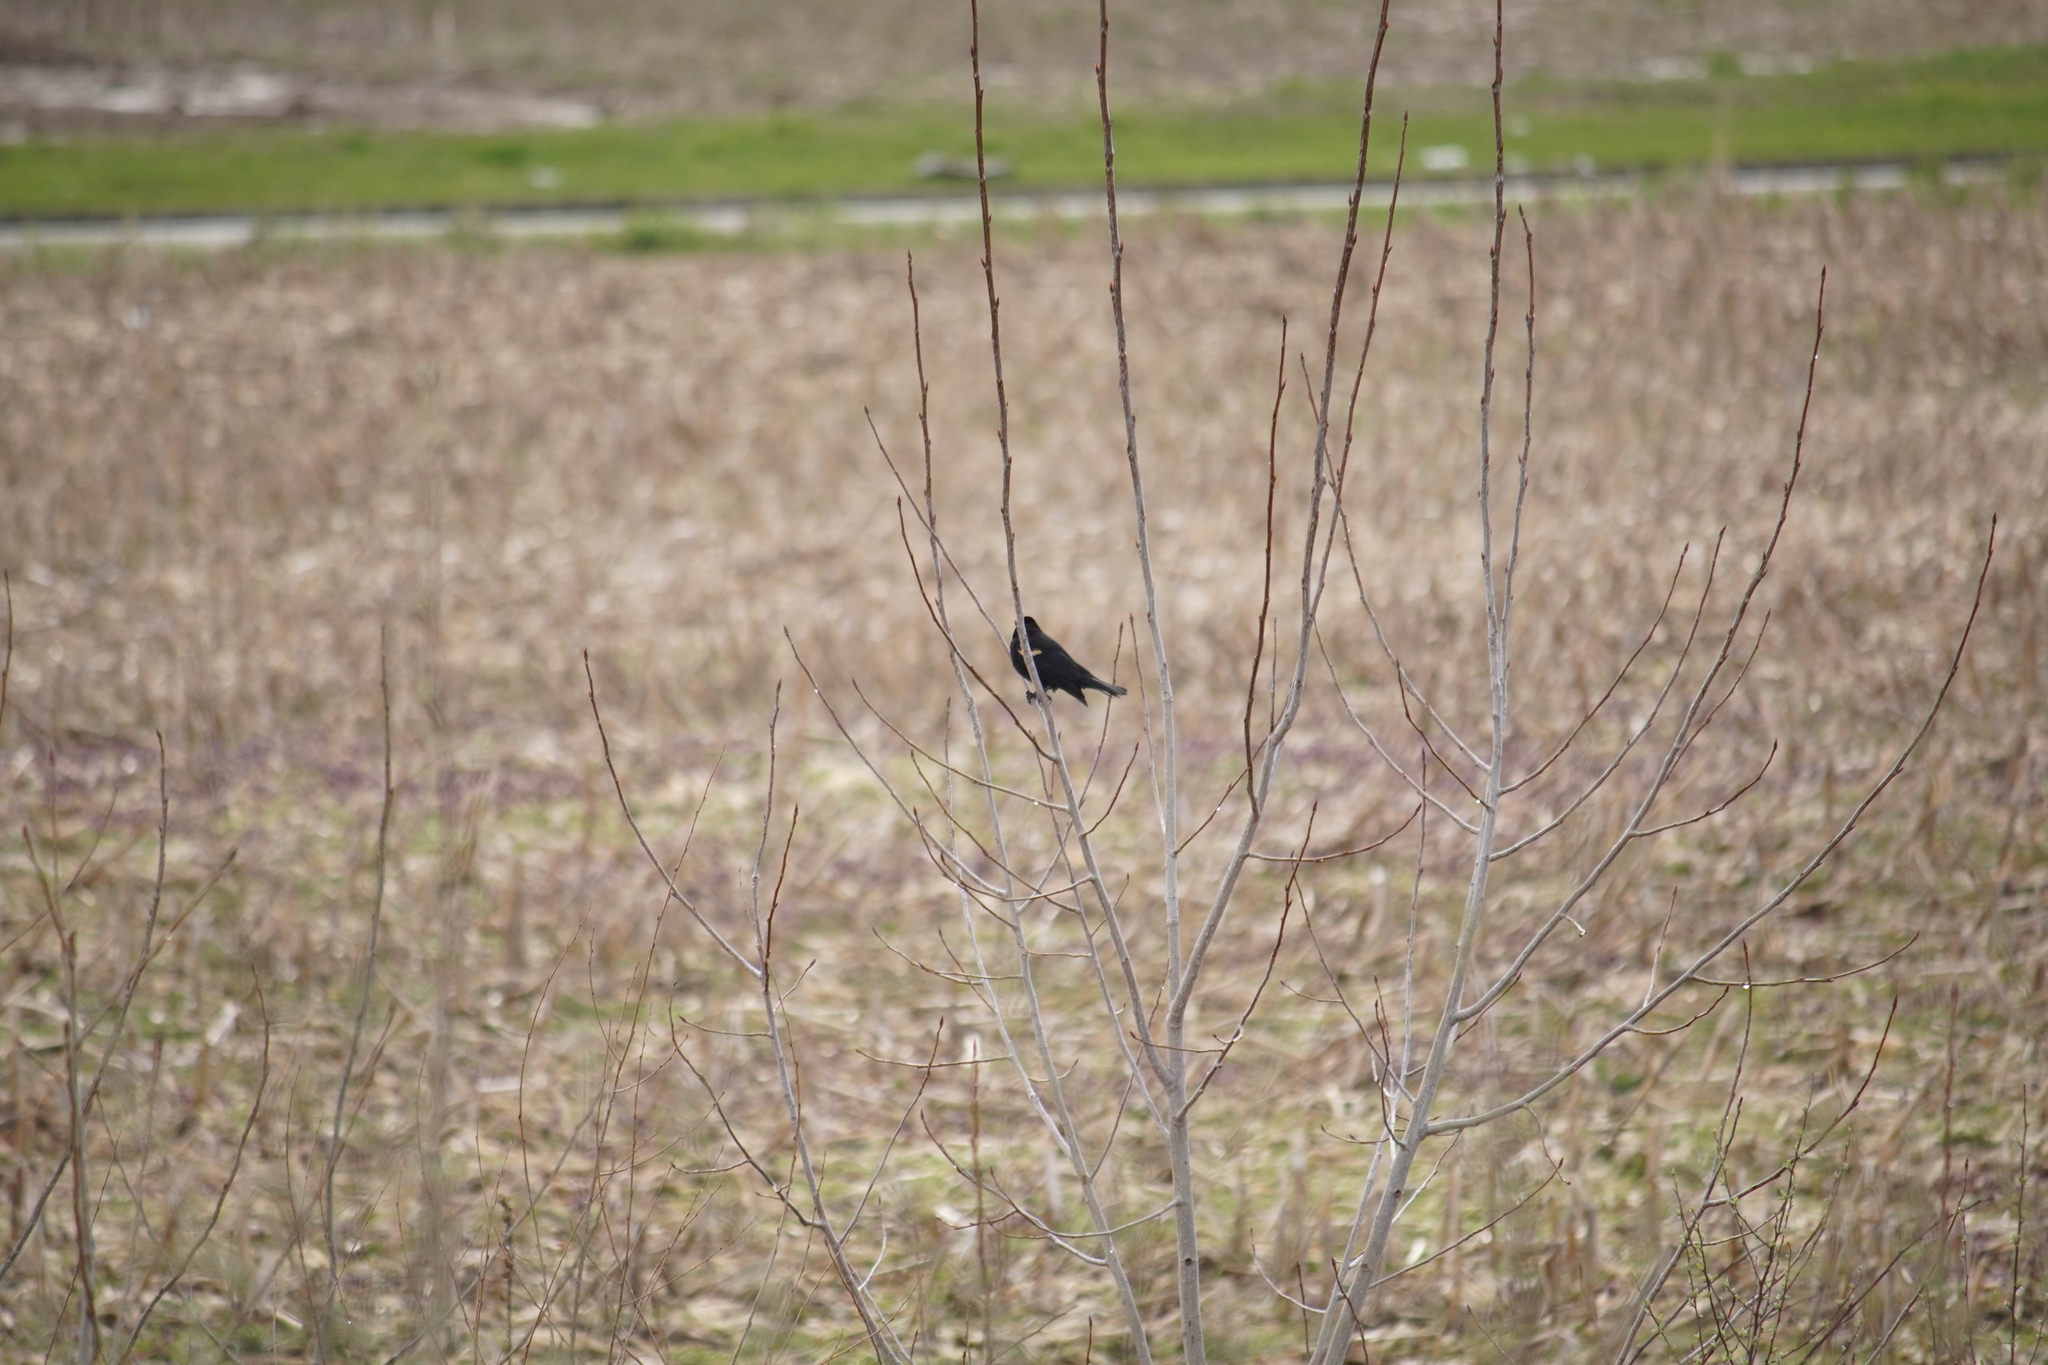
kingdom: Animalia
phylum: Chordata
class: Aves
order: Passeriformes
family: Icteridae
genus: Agelaius
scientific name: Agelaius phoeniceus
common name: Red-winged blackbird
